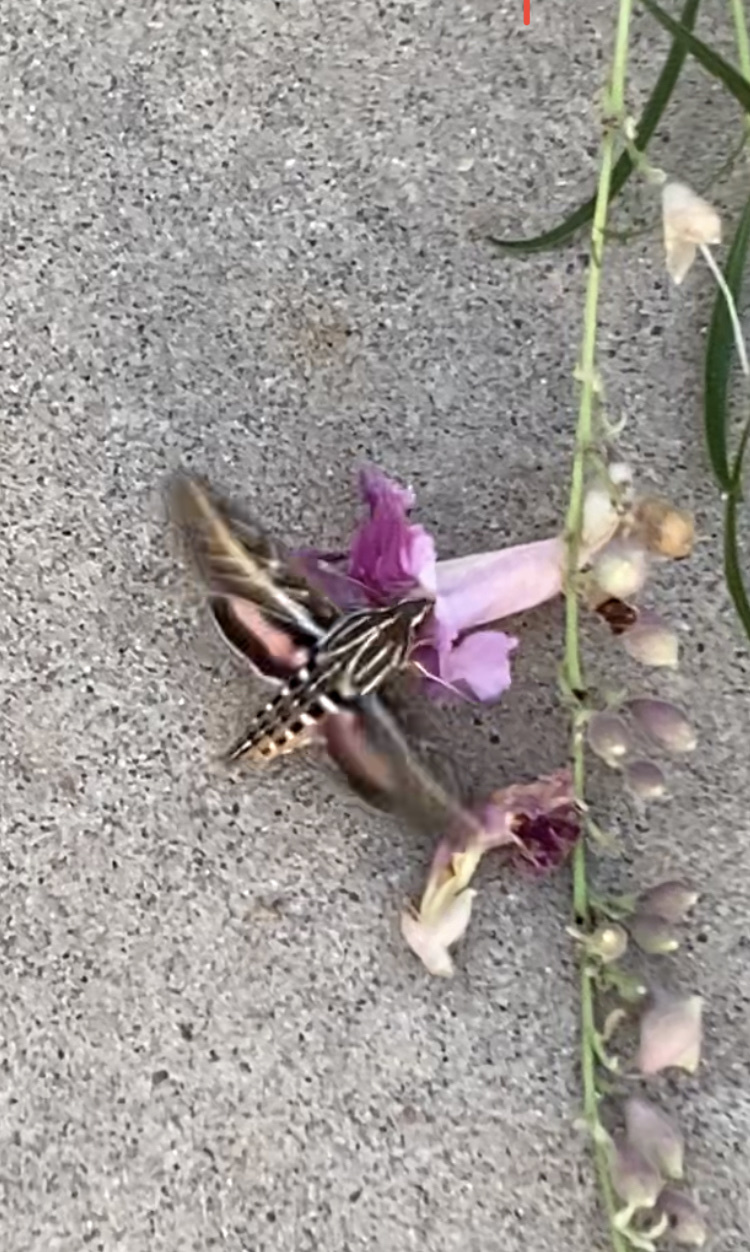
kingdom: Animalia
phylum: Arthropoda
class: Insecta
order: Lepidoptera
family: Sphingidae
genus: Hyles
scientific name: Hyles lineata
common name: White-lined sphinx
